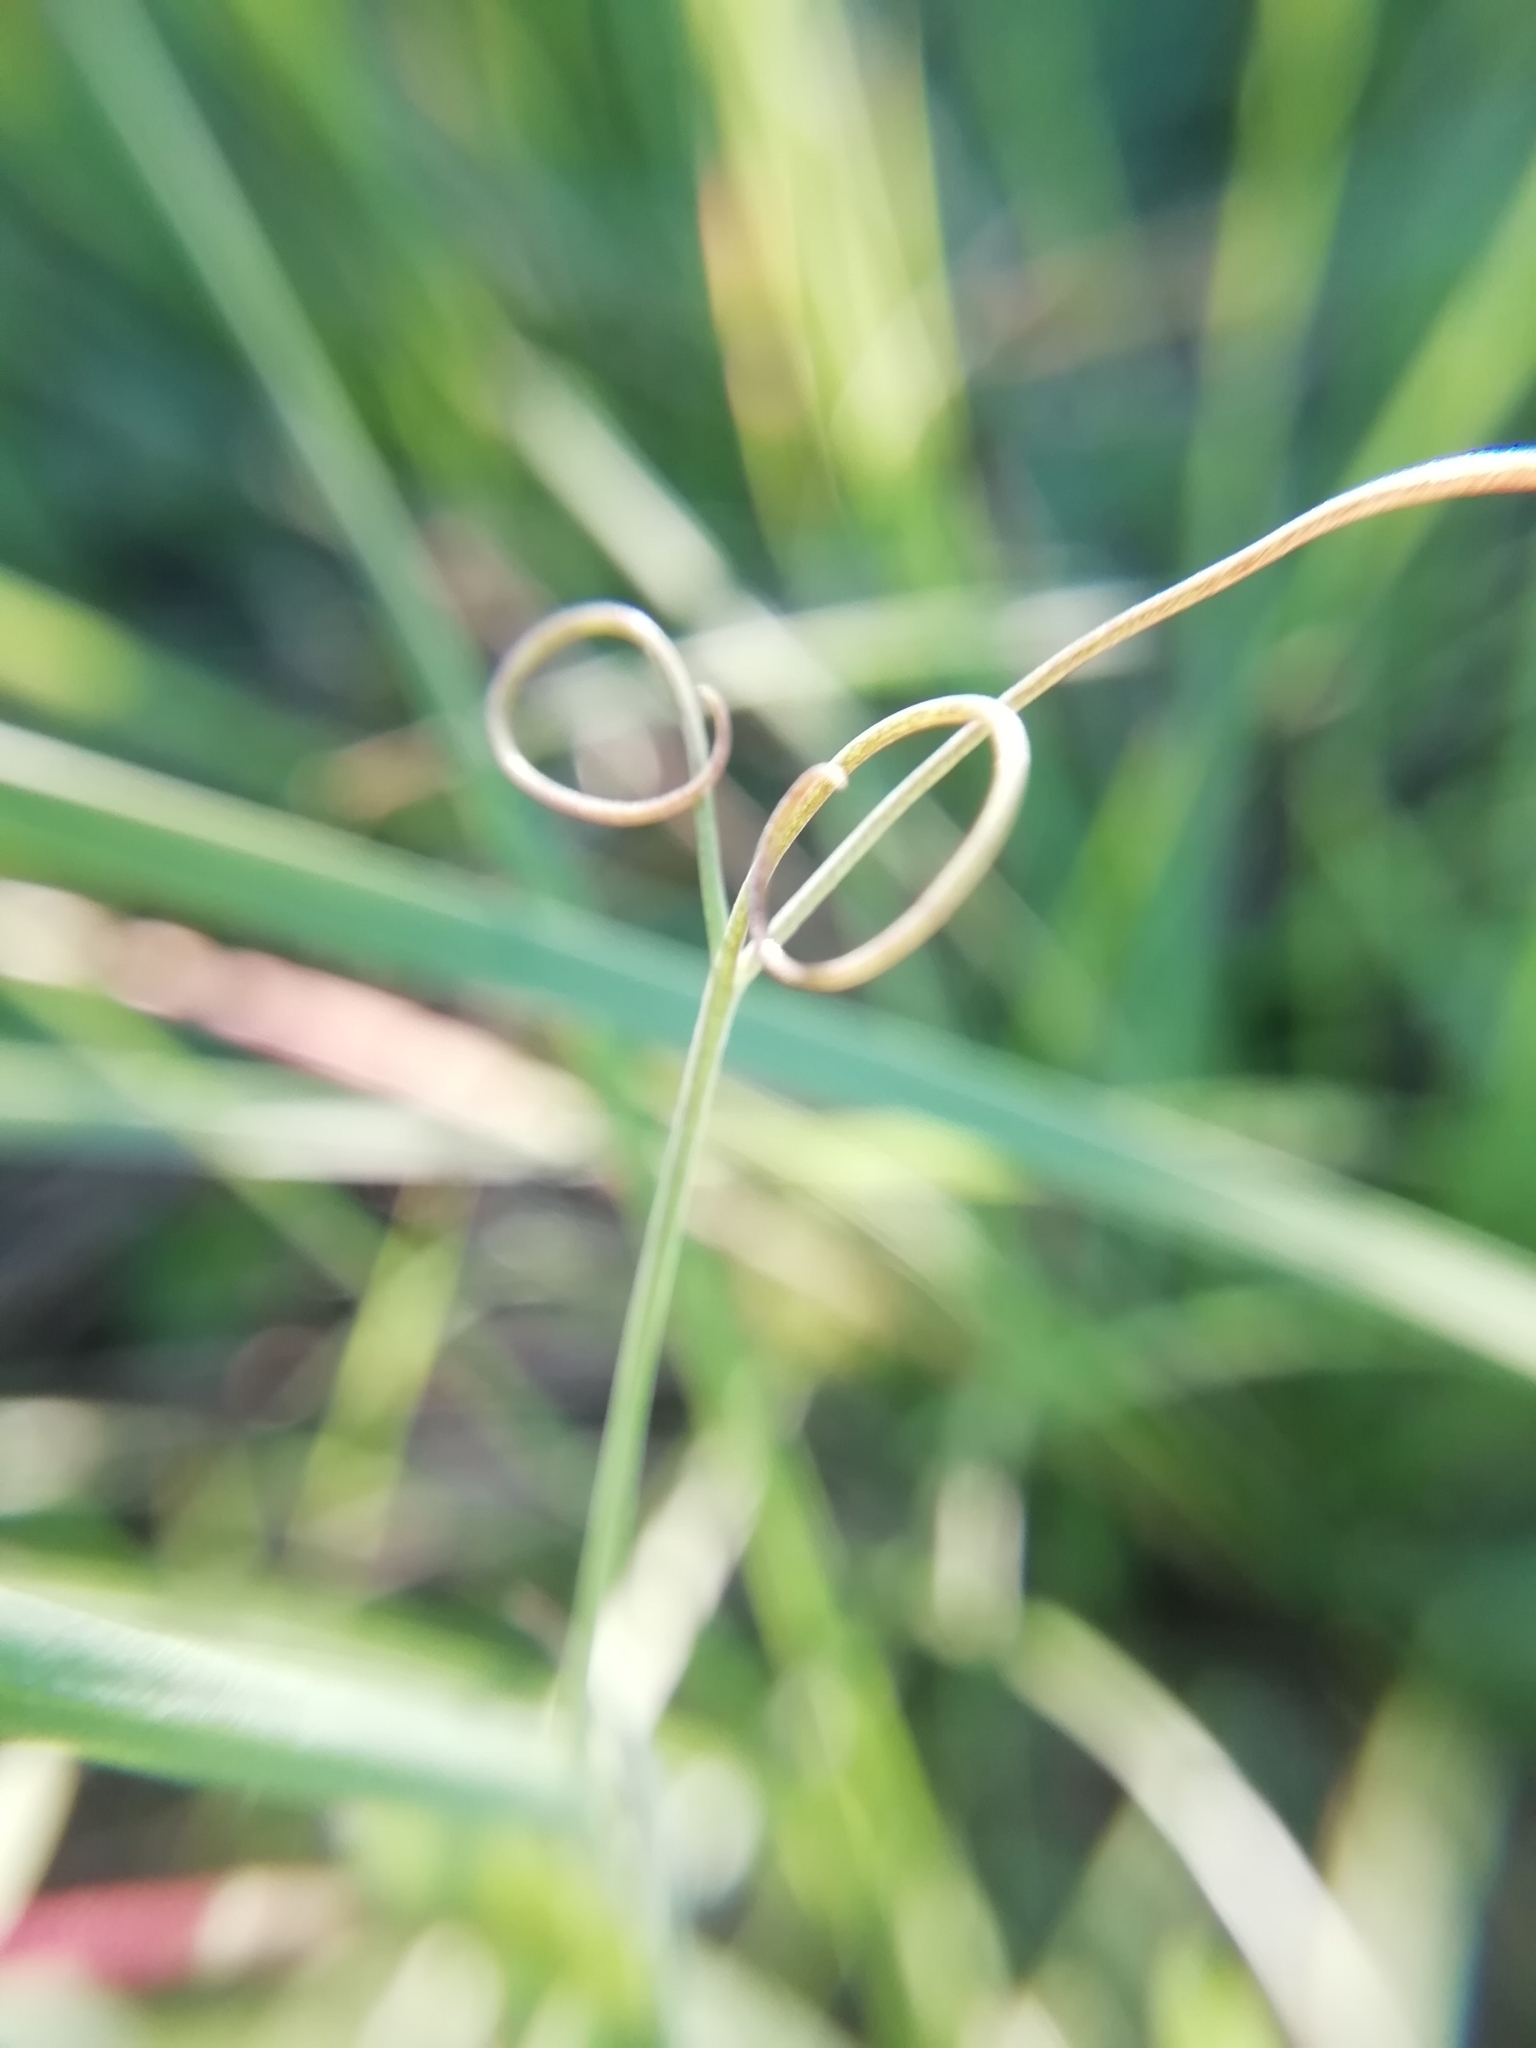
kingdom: Plantae
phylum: Tracheophyta
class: Magnoliopsida
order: Fabales
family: Fabaceae
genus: Lathyrus
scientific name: Lathyrus cicera
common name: Red vetchling
